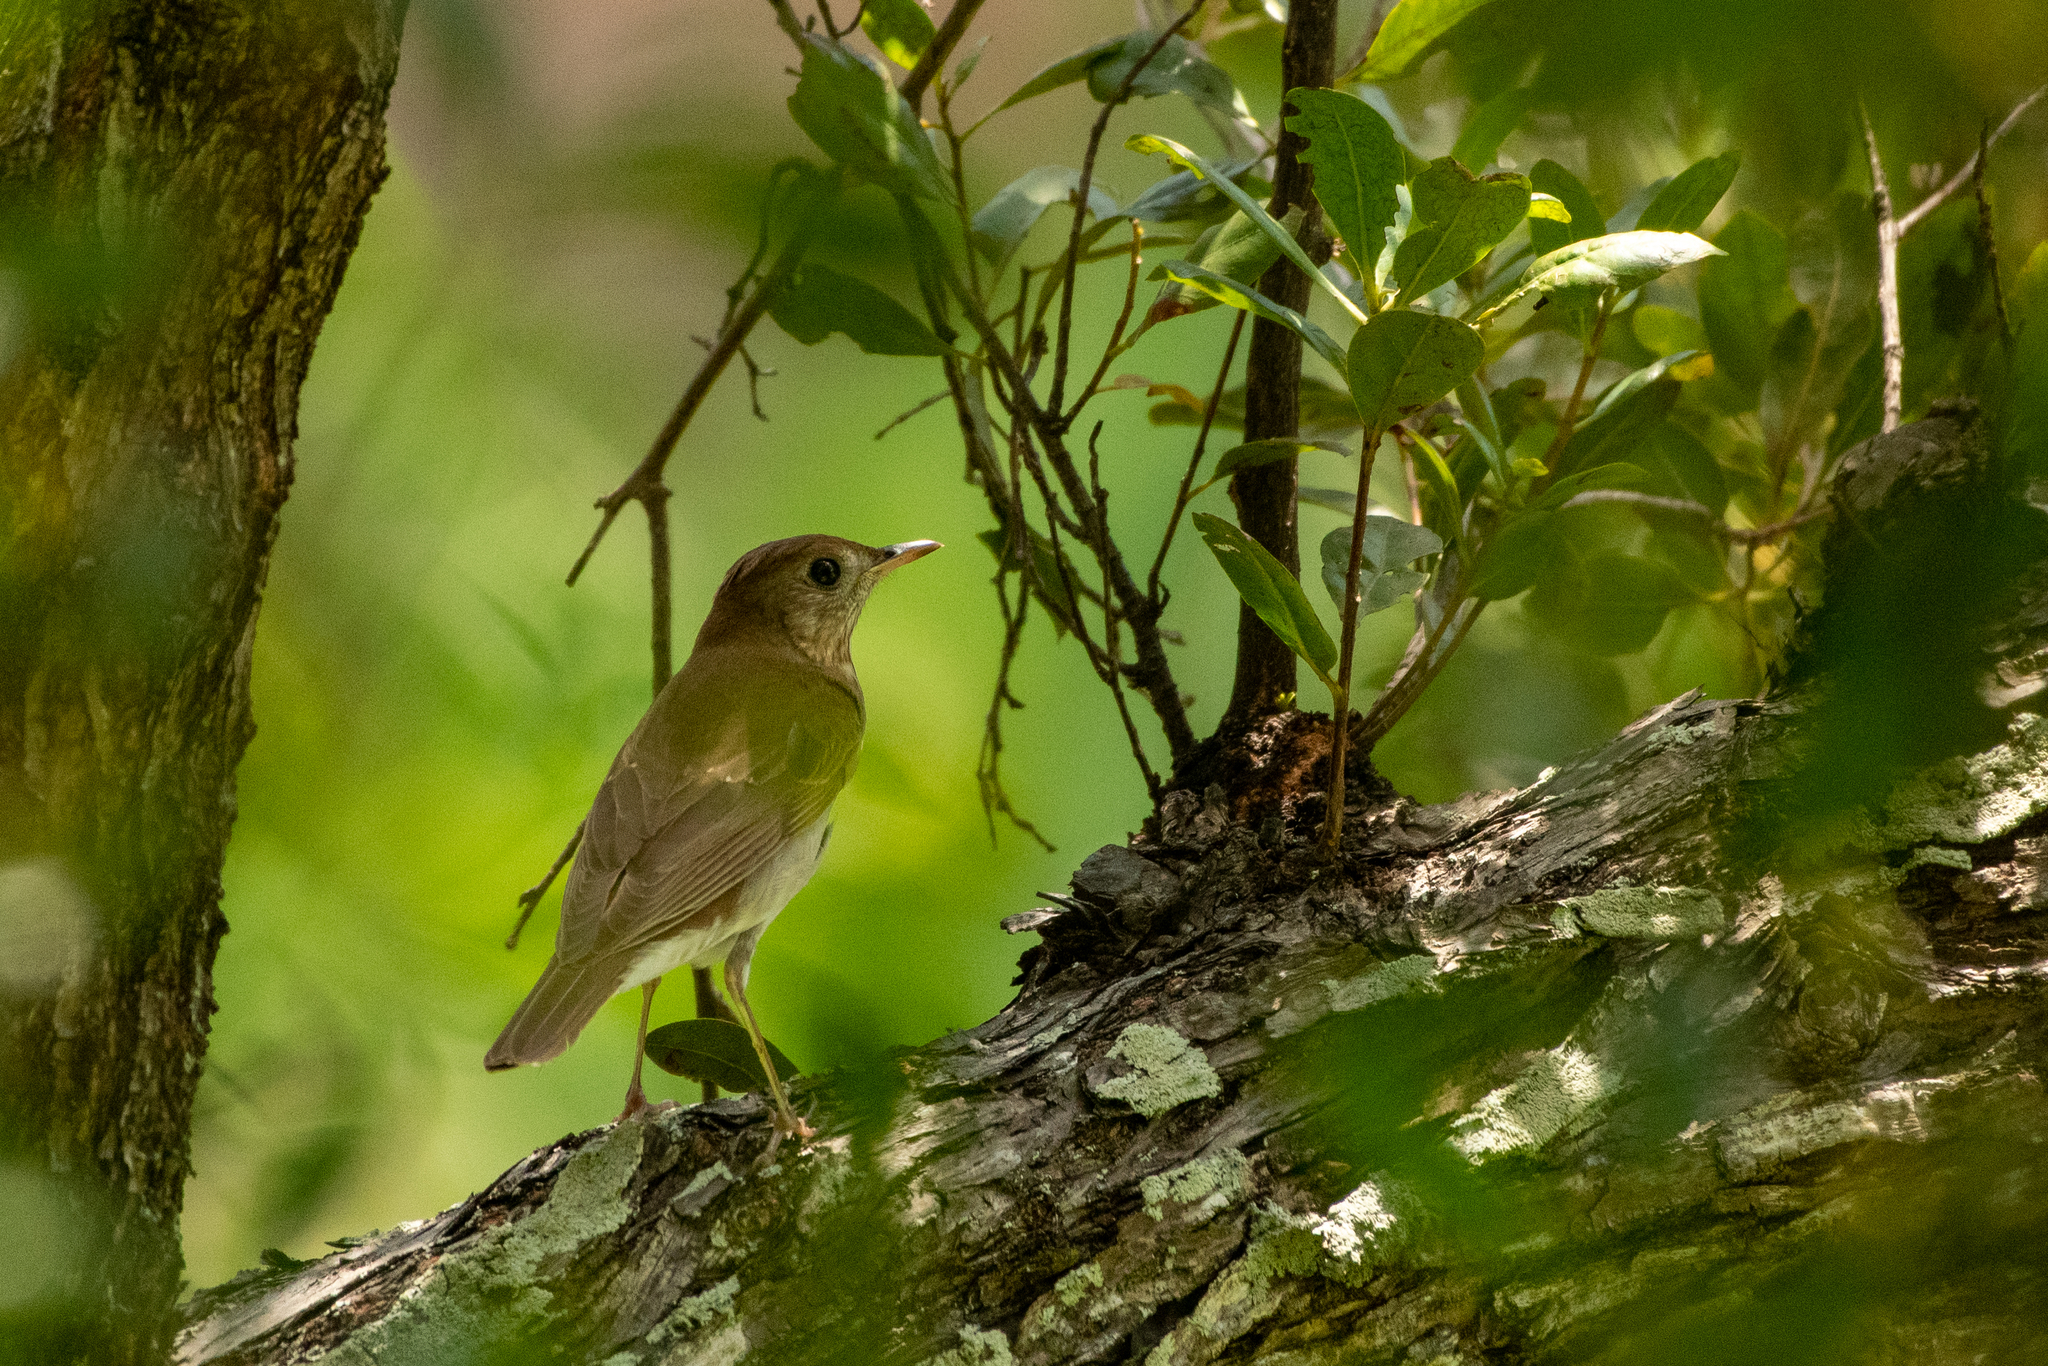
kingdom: Animalia
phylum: Chordata
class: Aves
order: Passeriformes
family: Turdidae
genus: Catharus
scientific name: Catharus fuscescens
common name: Veery
